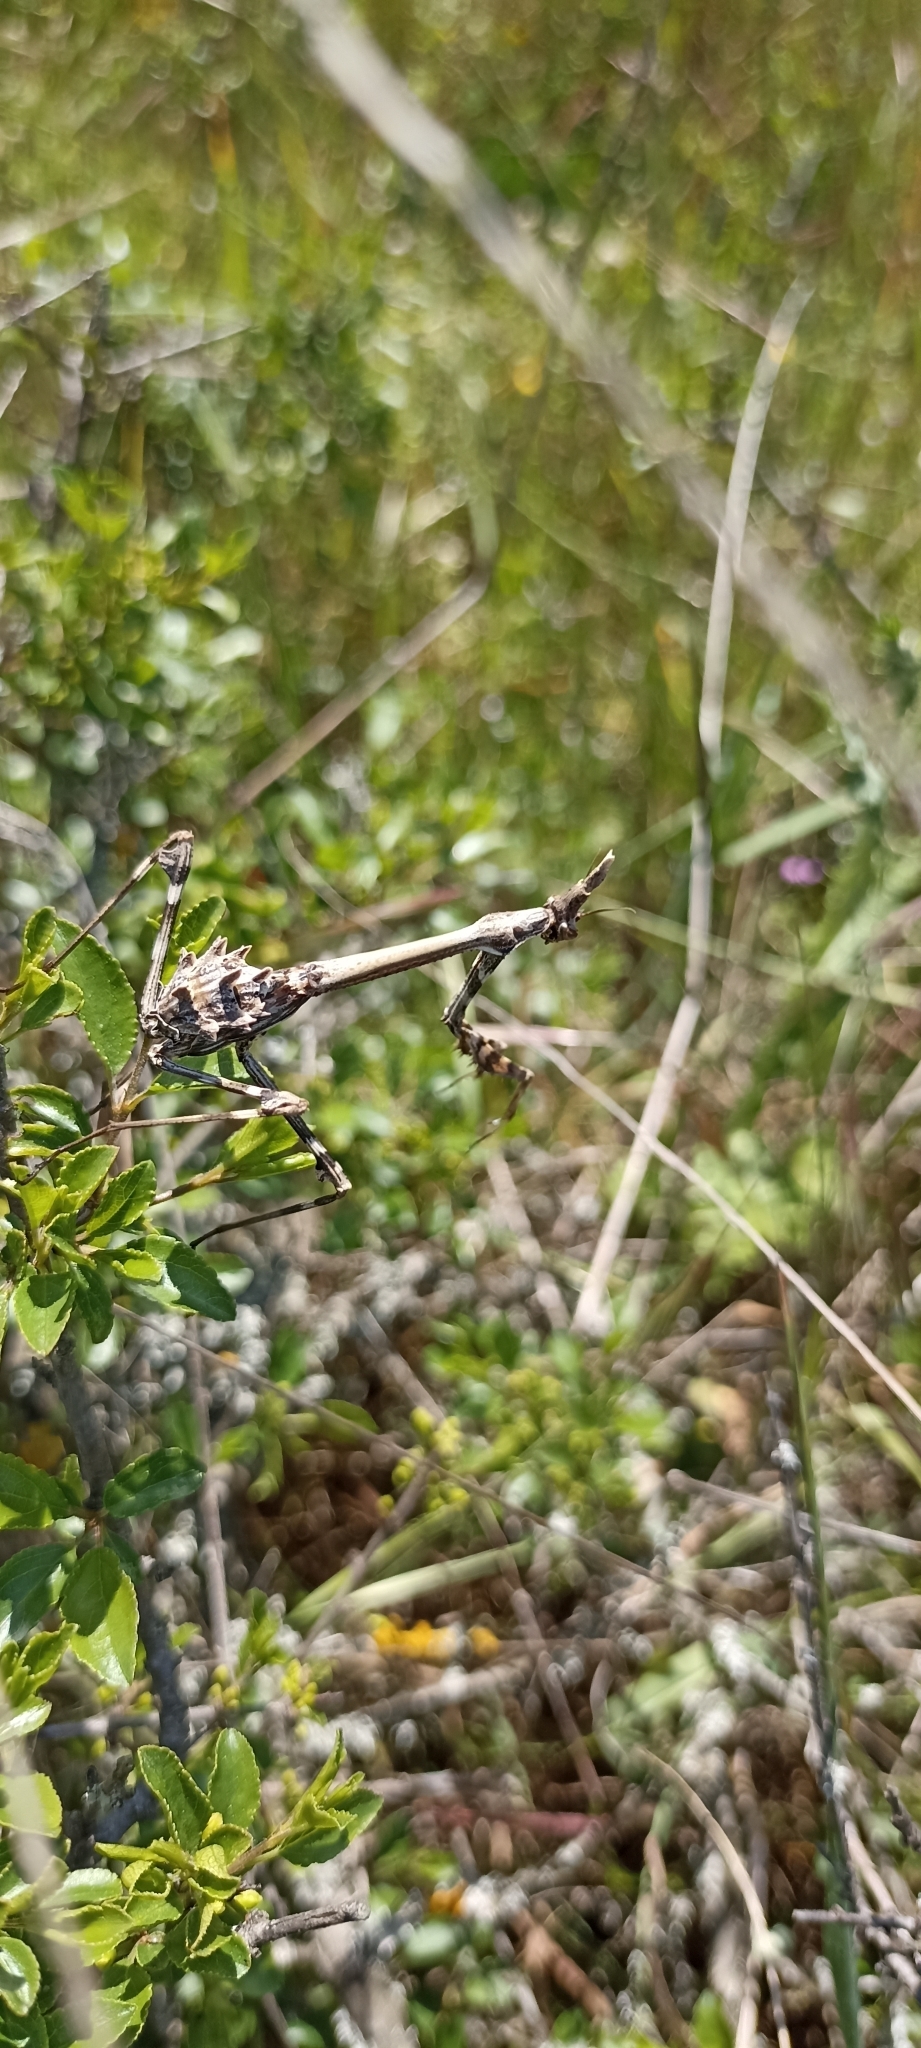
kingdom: Animalia
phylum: Arthropoda
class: Insecta
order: Mantodea
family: Empusidae
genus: Empusa
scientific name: Empusa pennata
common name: Conehead mantis
